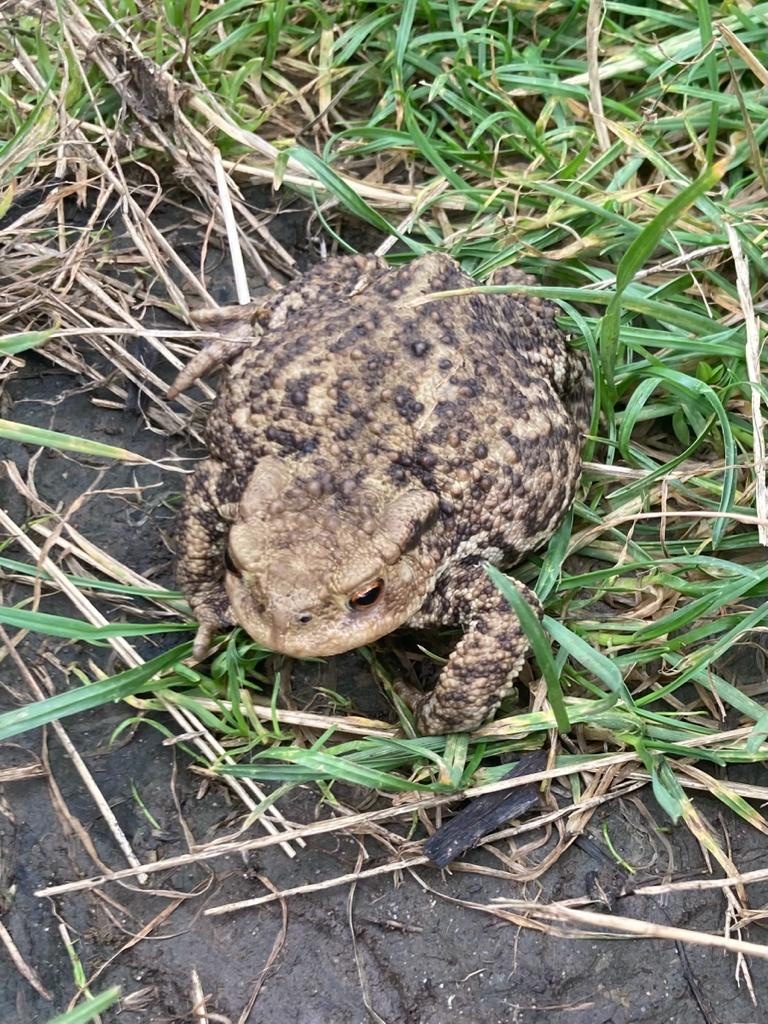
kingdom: Animalia
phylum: Chordata
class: Amphibia
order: Anura
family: Bufonidae
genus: Bufo
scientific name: Bufo bufo
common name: Common toad
